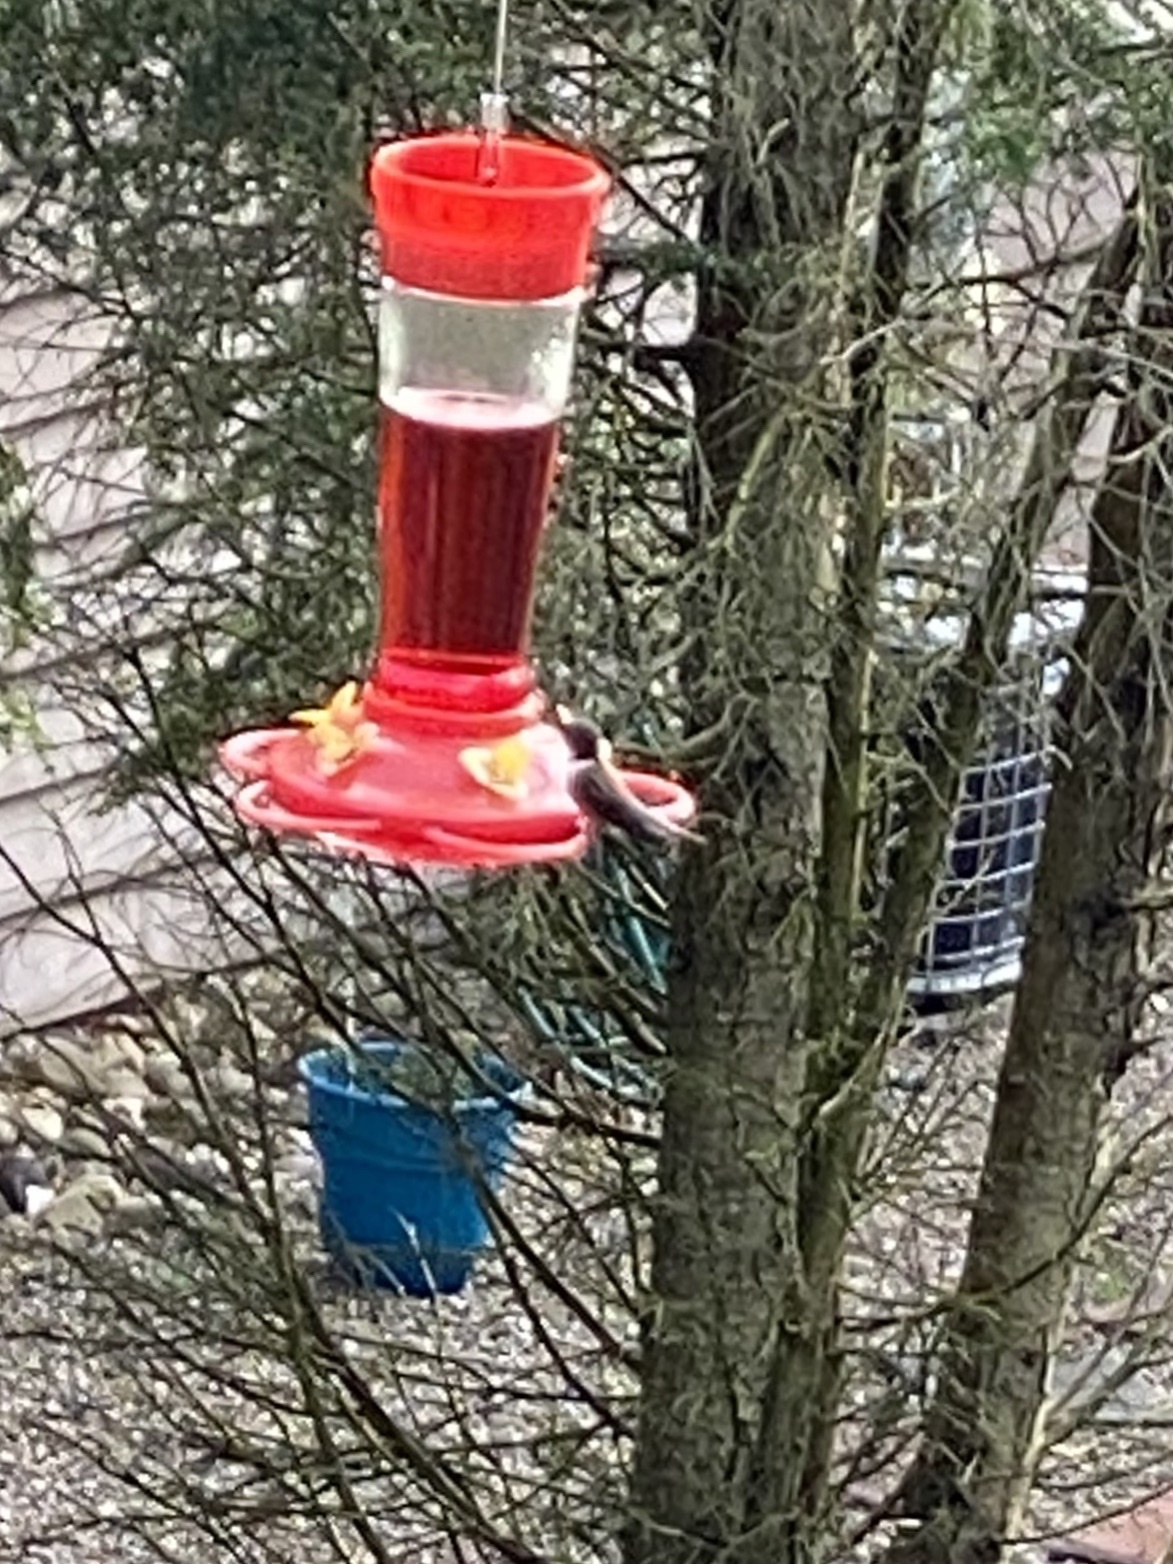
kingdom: Animalia
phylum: Chordata
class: Aves
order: Apodiformes
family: Trochilidae
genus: Archilochus
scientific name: Archilochus colubris
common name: Ruby-throated hummingbird
